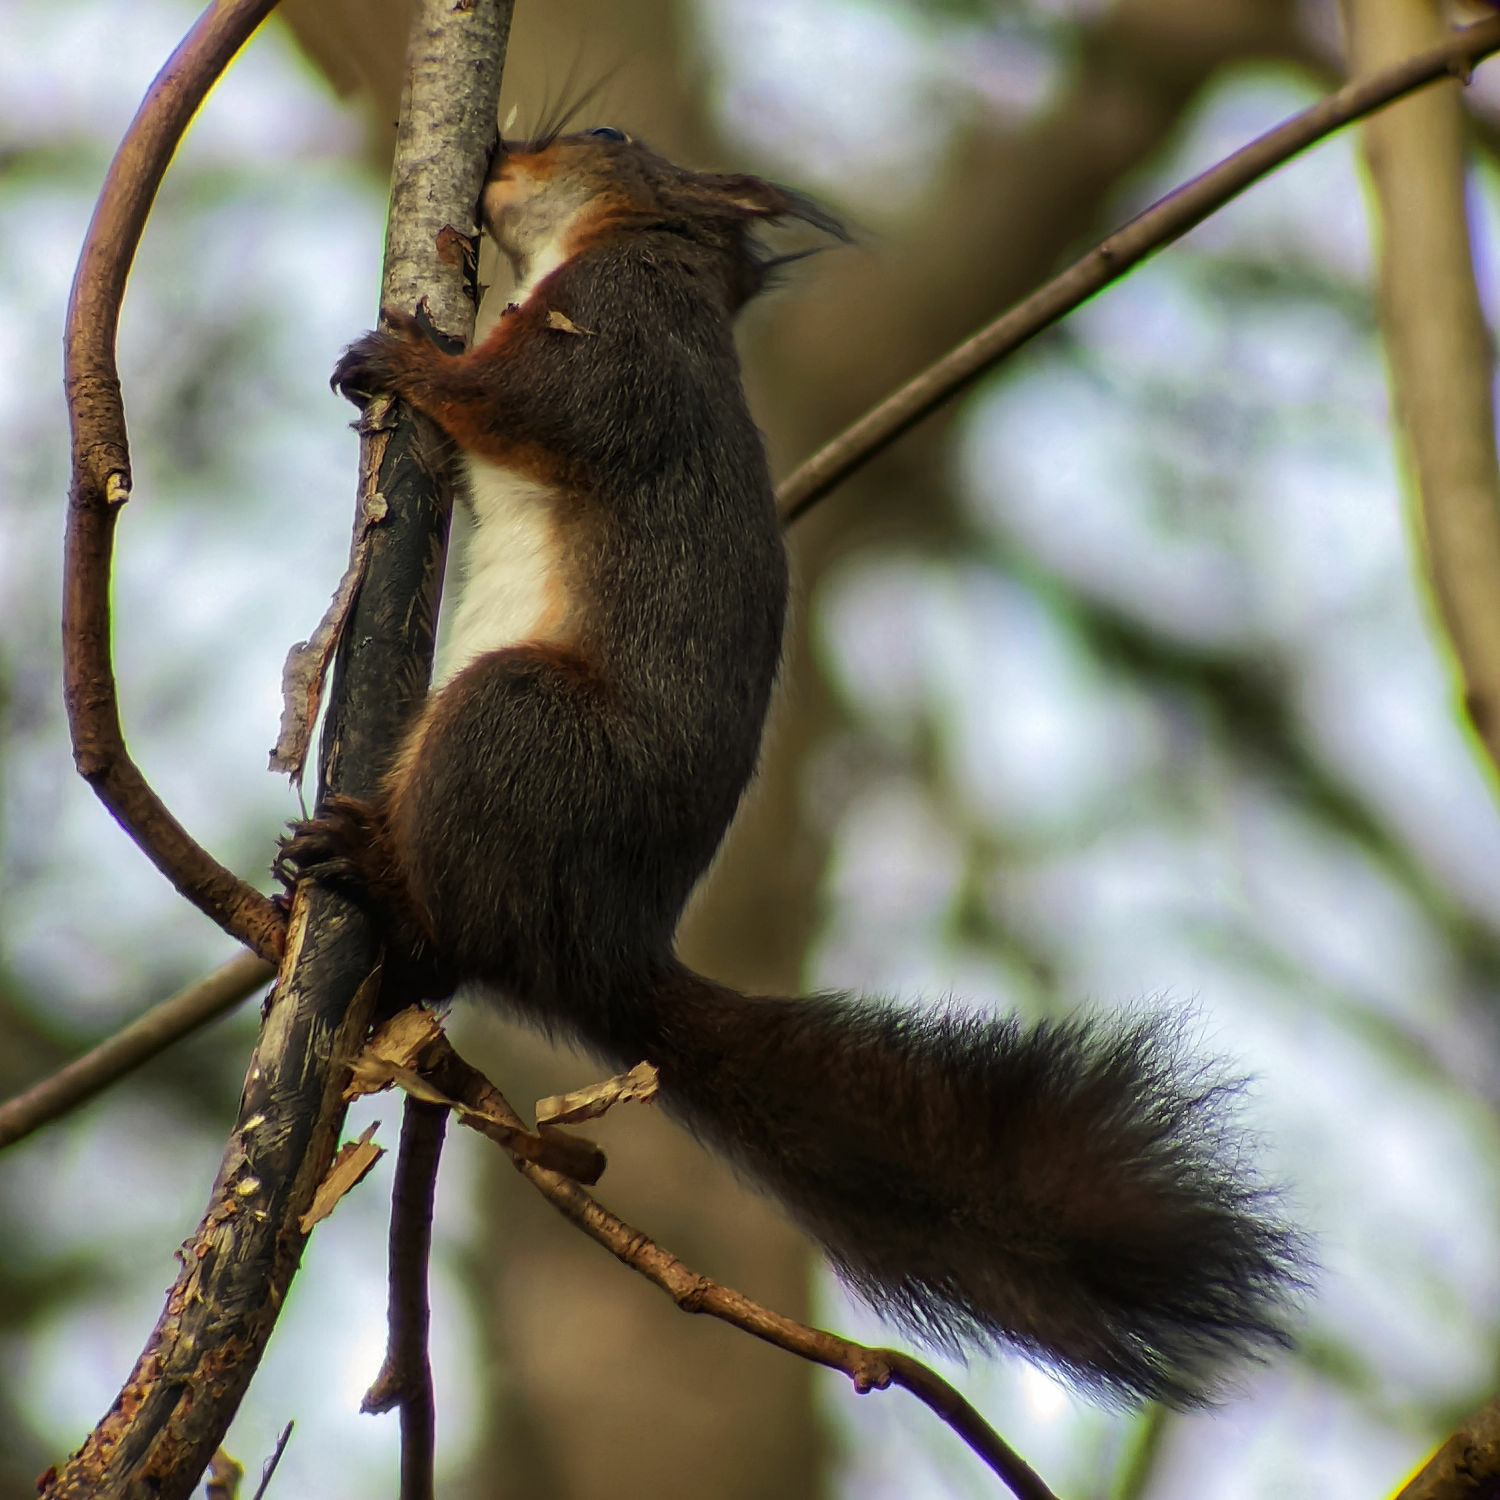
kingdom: Animalia
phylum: Chordata
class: Mammalia
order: Rodentia
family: Sciuridae
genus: Sciurus
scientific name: Sciurus vulgaris
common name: Eurasian red squirrel
